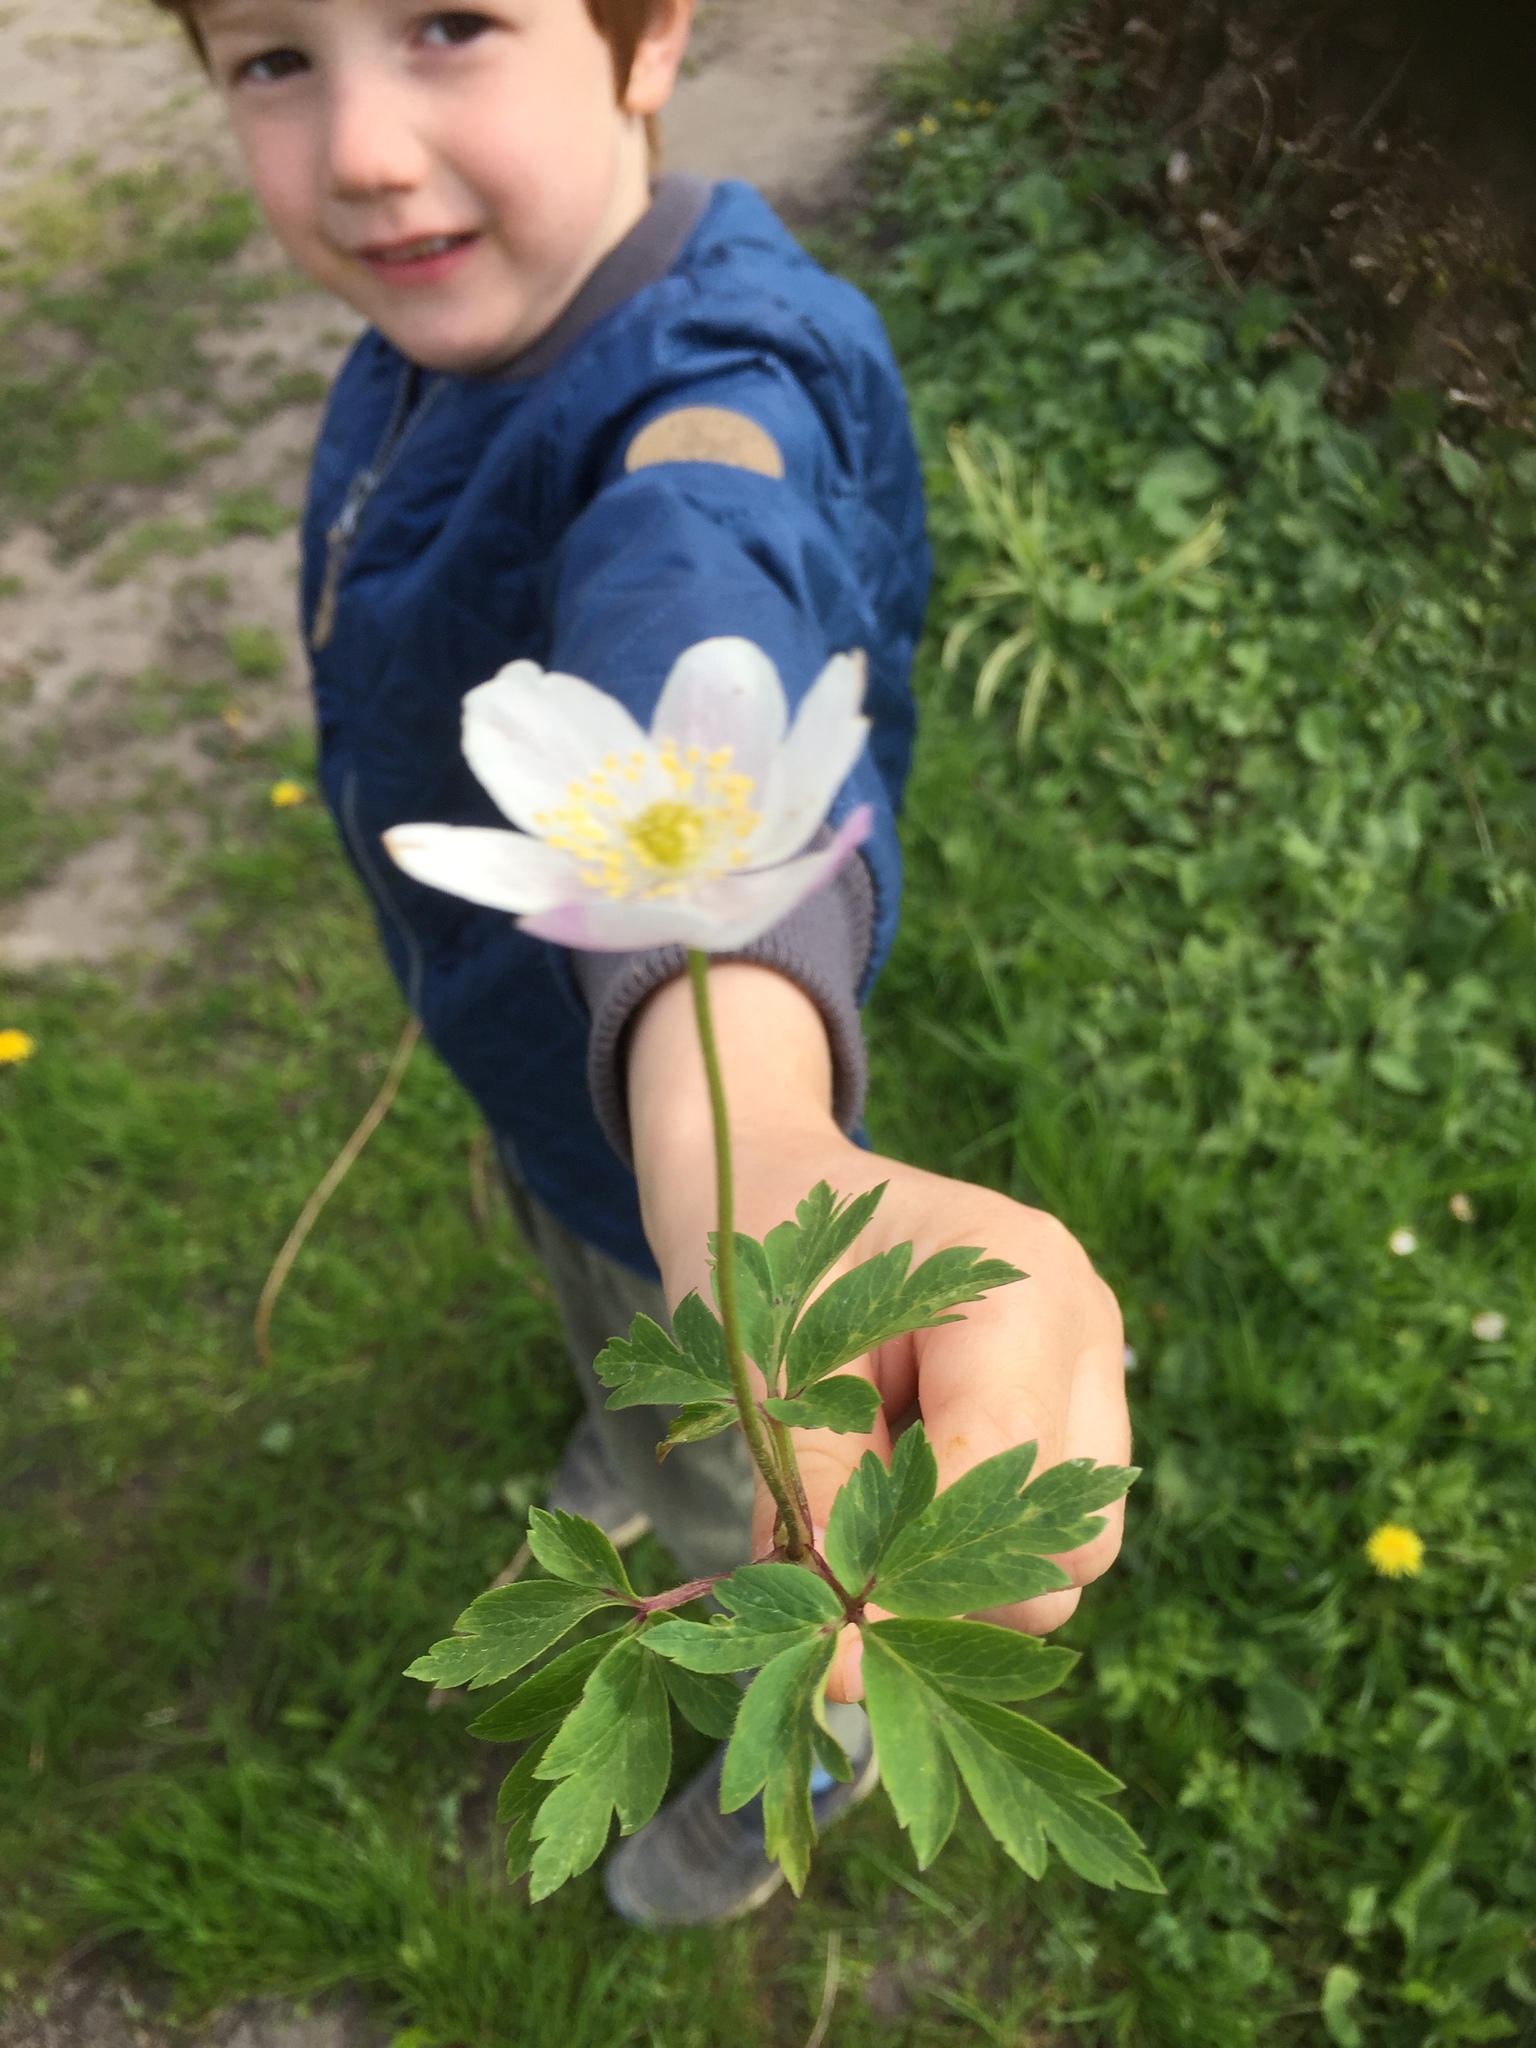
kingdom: Plantae
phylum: Tracheophyta
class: Magnoliopsida
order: Ranunculales
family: Ranunculaceae
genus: Anemone
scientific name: Anemone nemorosa
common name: Wood anemone
